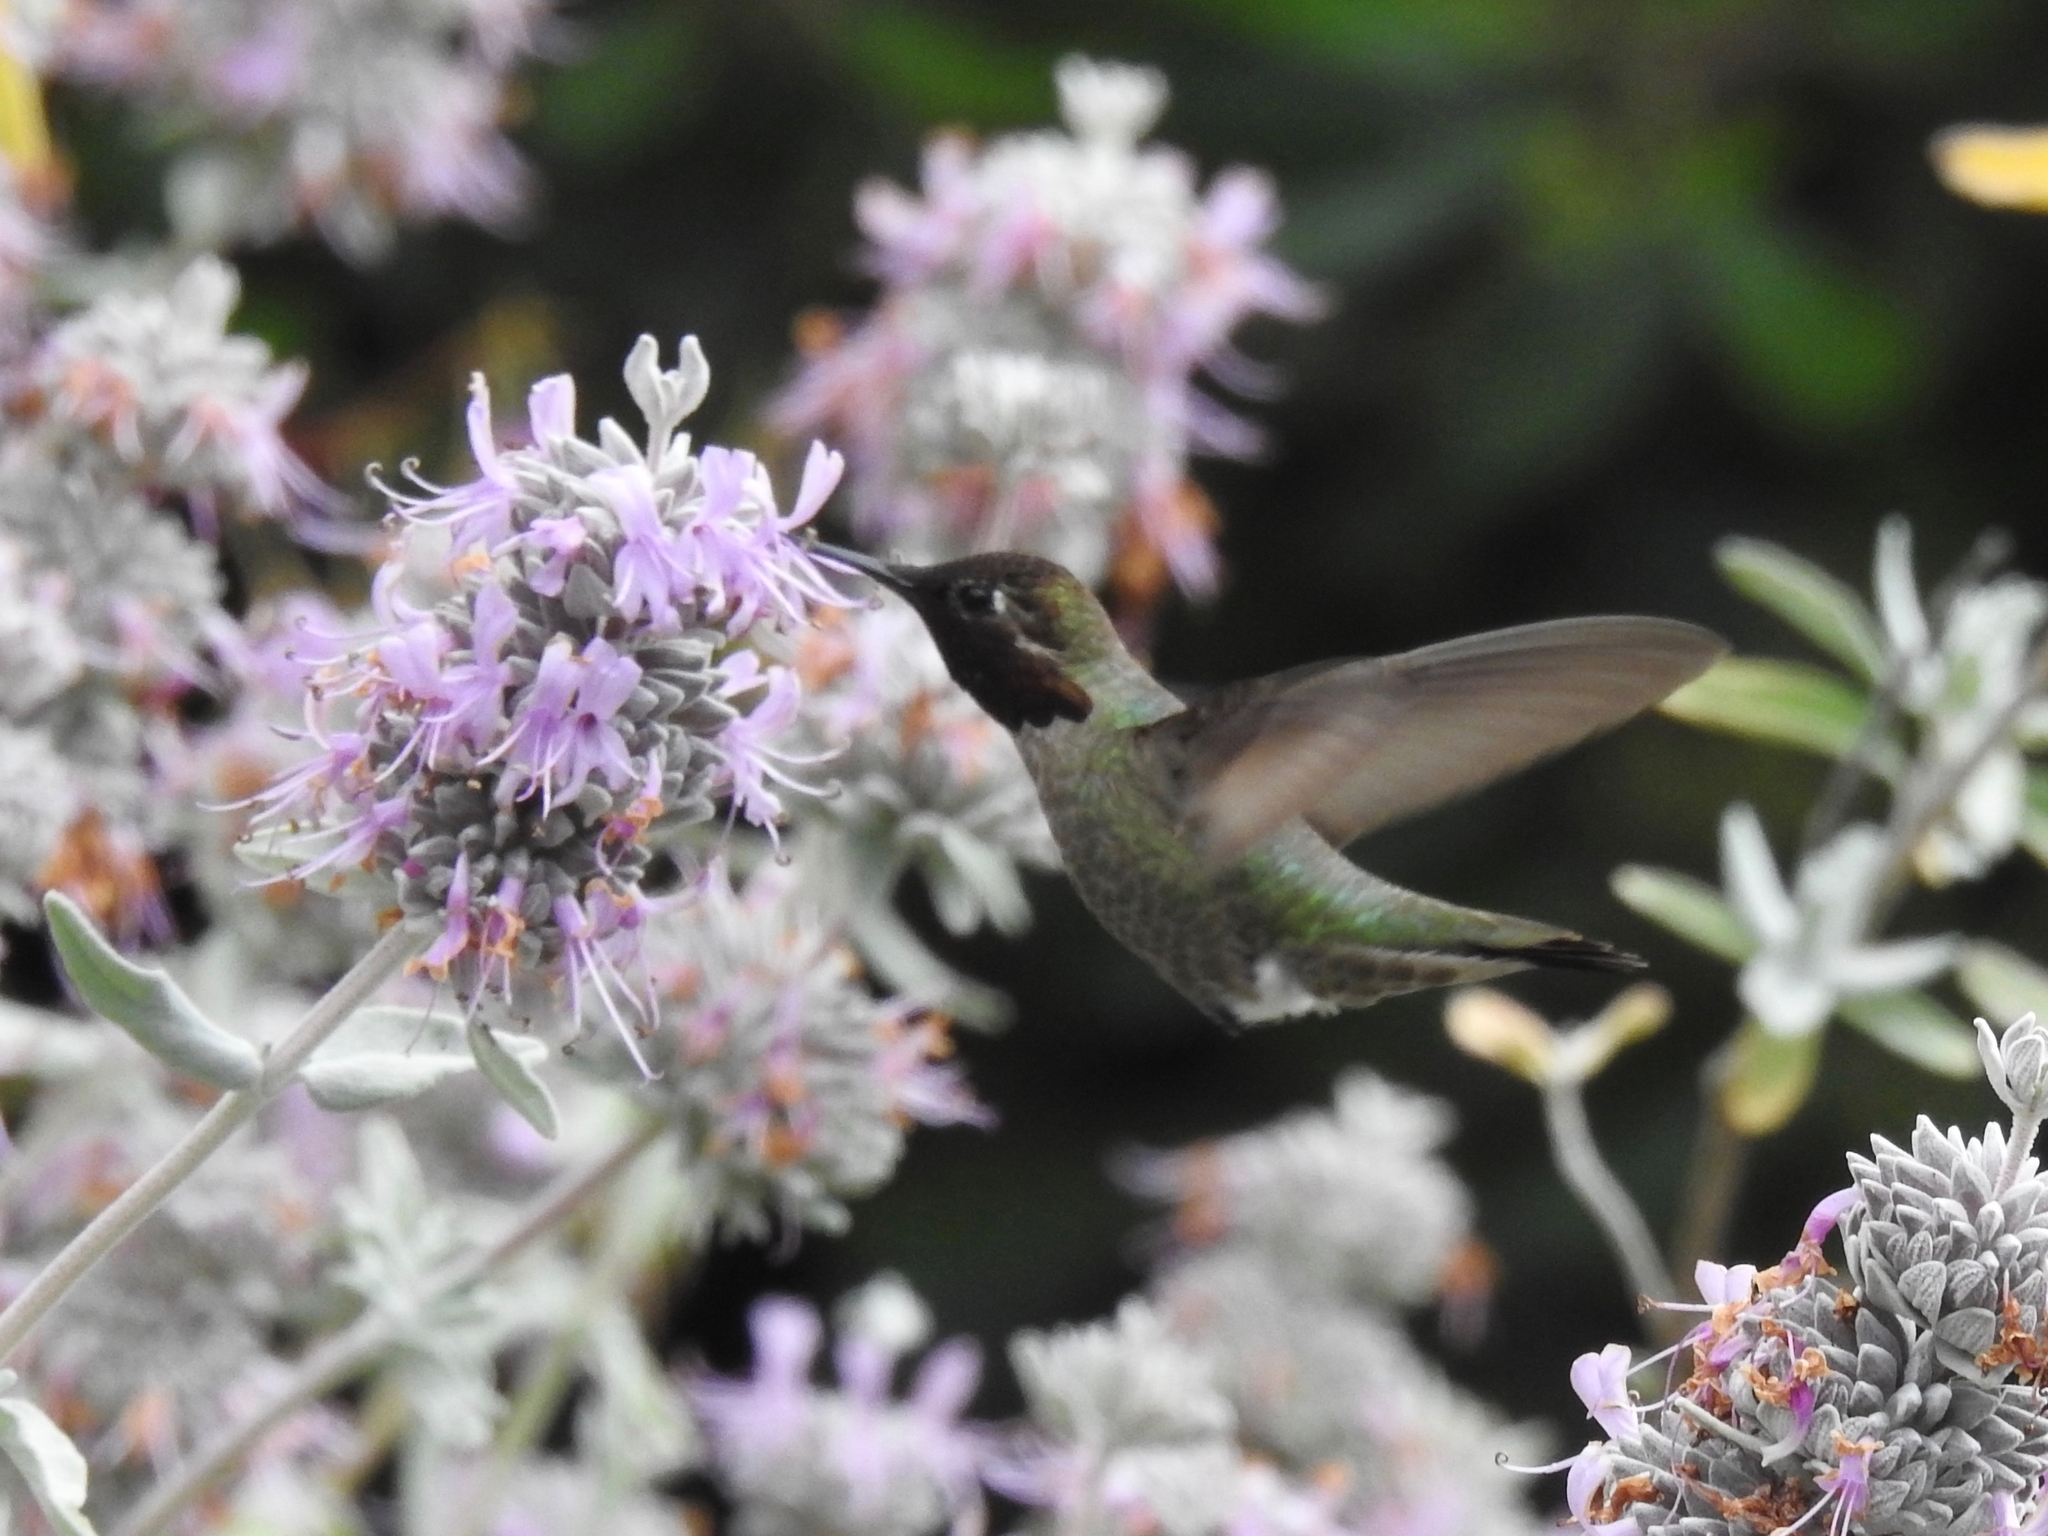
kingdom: Animalia
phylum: Chordata
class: Aves
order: Apodiformes
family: Trochilidae
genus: Calypte
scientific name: Calypte anna
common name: Anna's hummingbird
